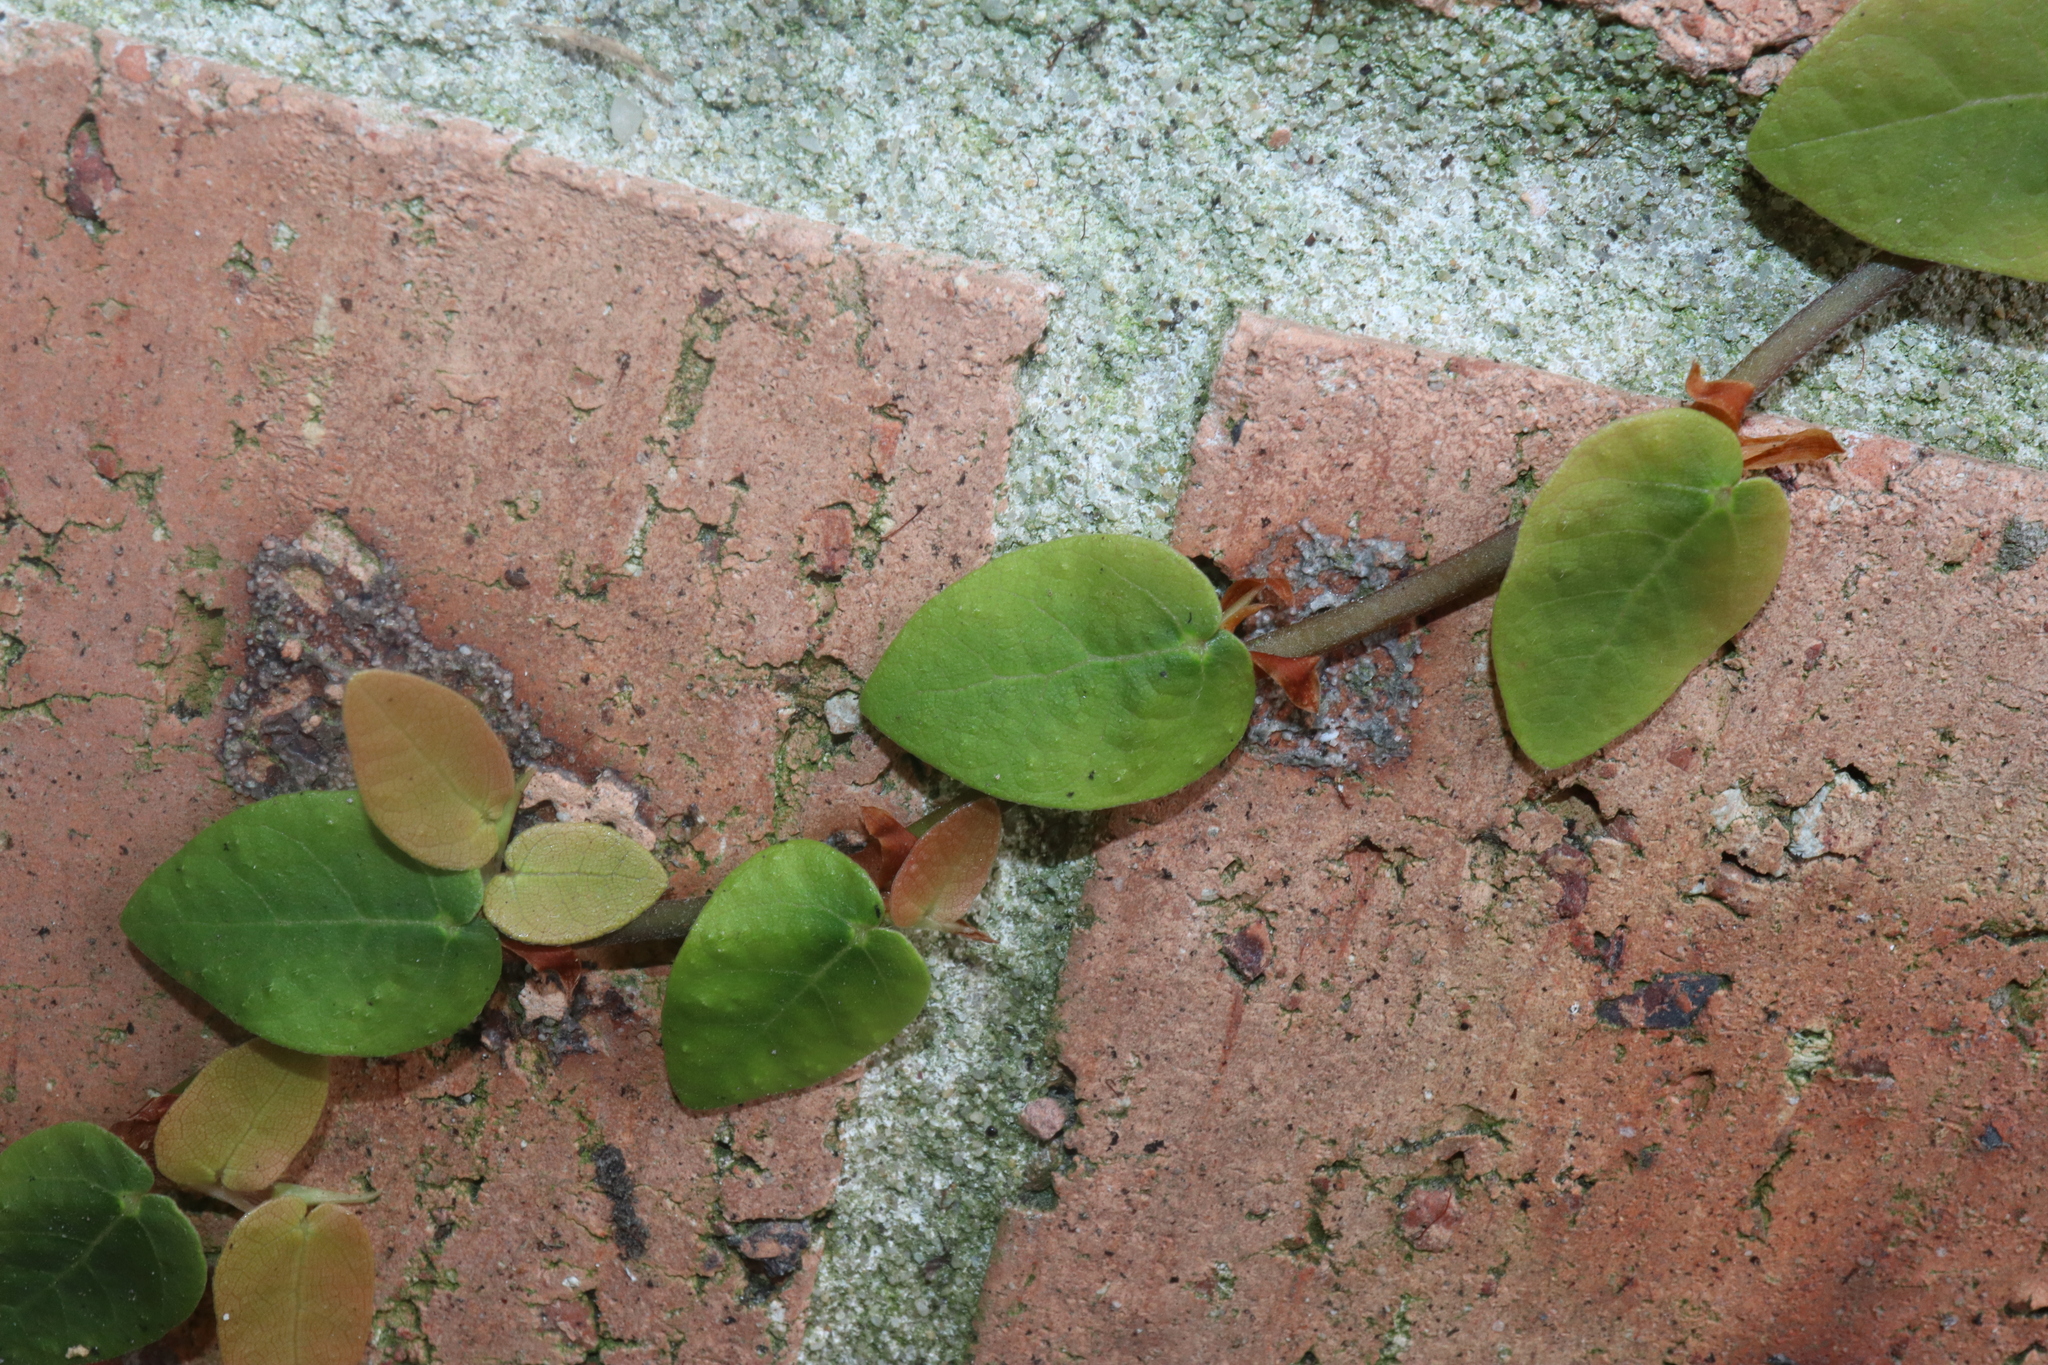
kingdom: Plantae
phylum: Tracheophyta
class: Magnoliopsida
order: Rosales
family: Moraceae
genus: Ficus
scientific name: Ficus pumila
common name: Climbingfig
